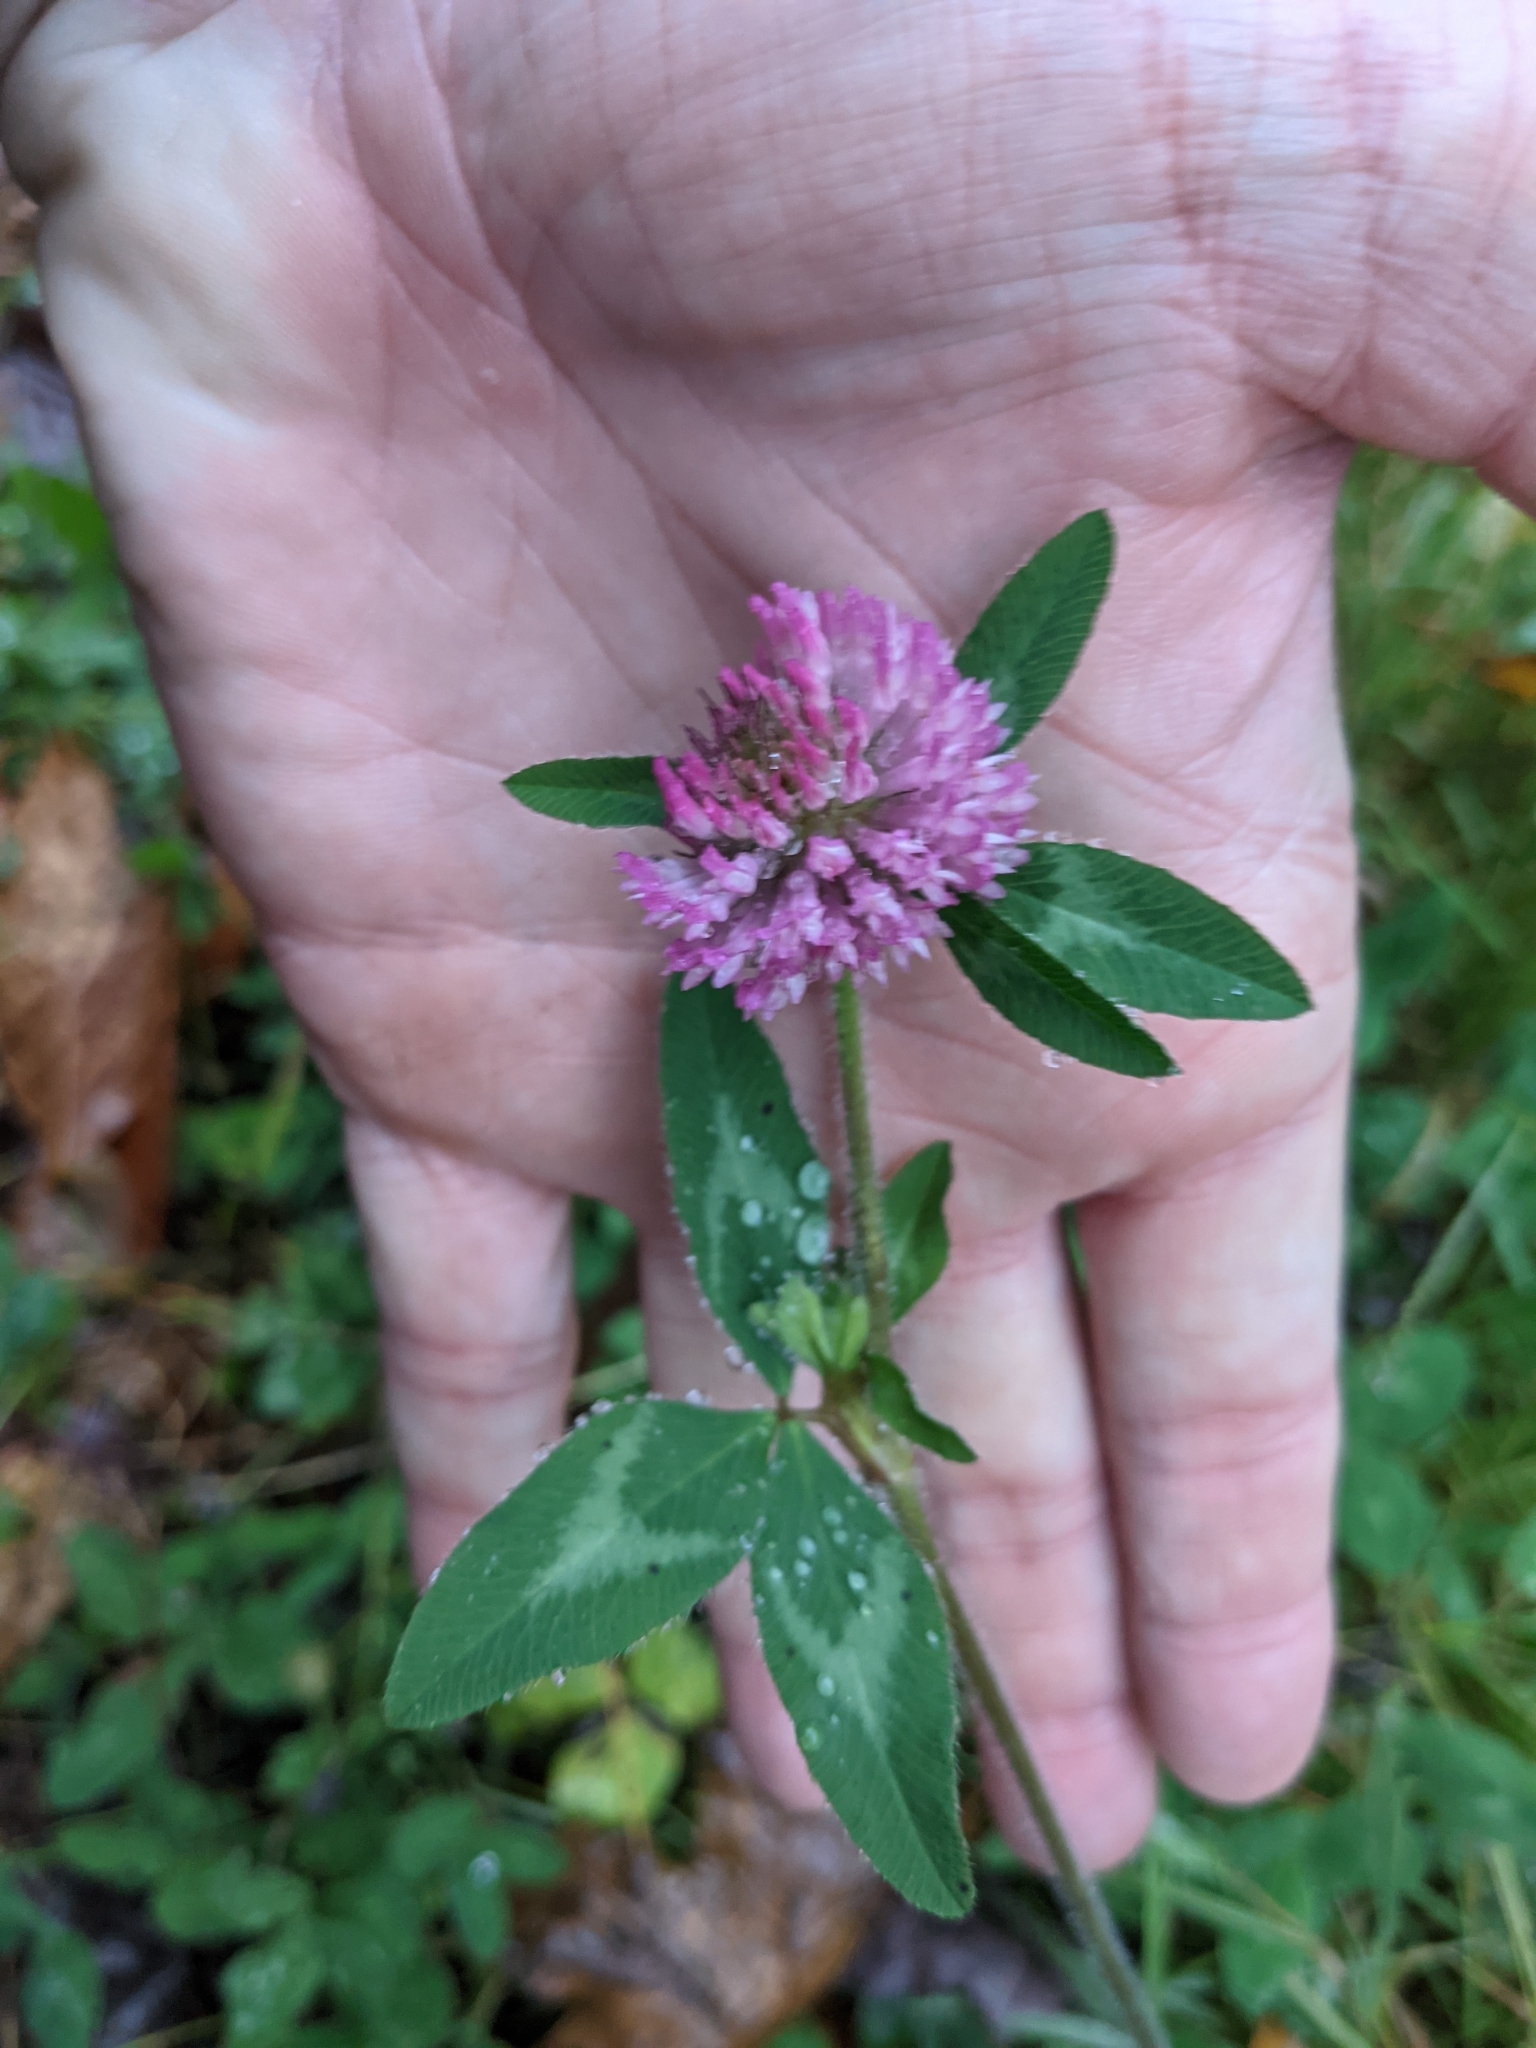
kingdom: Plantae
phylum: Tracheophyta
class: Magnoliopsida
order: Fabales
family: Fabaceae
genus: Trifolium
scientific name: Trifolium pratense
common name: Red clover
